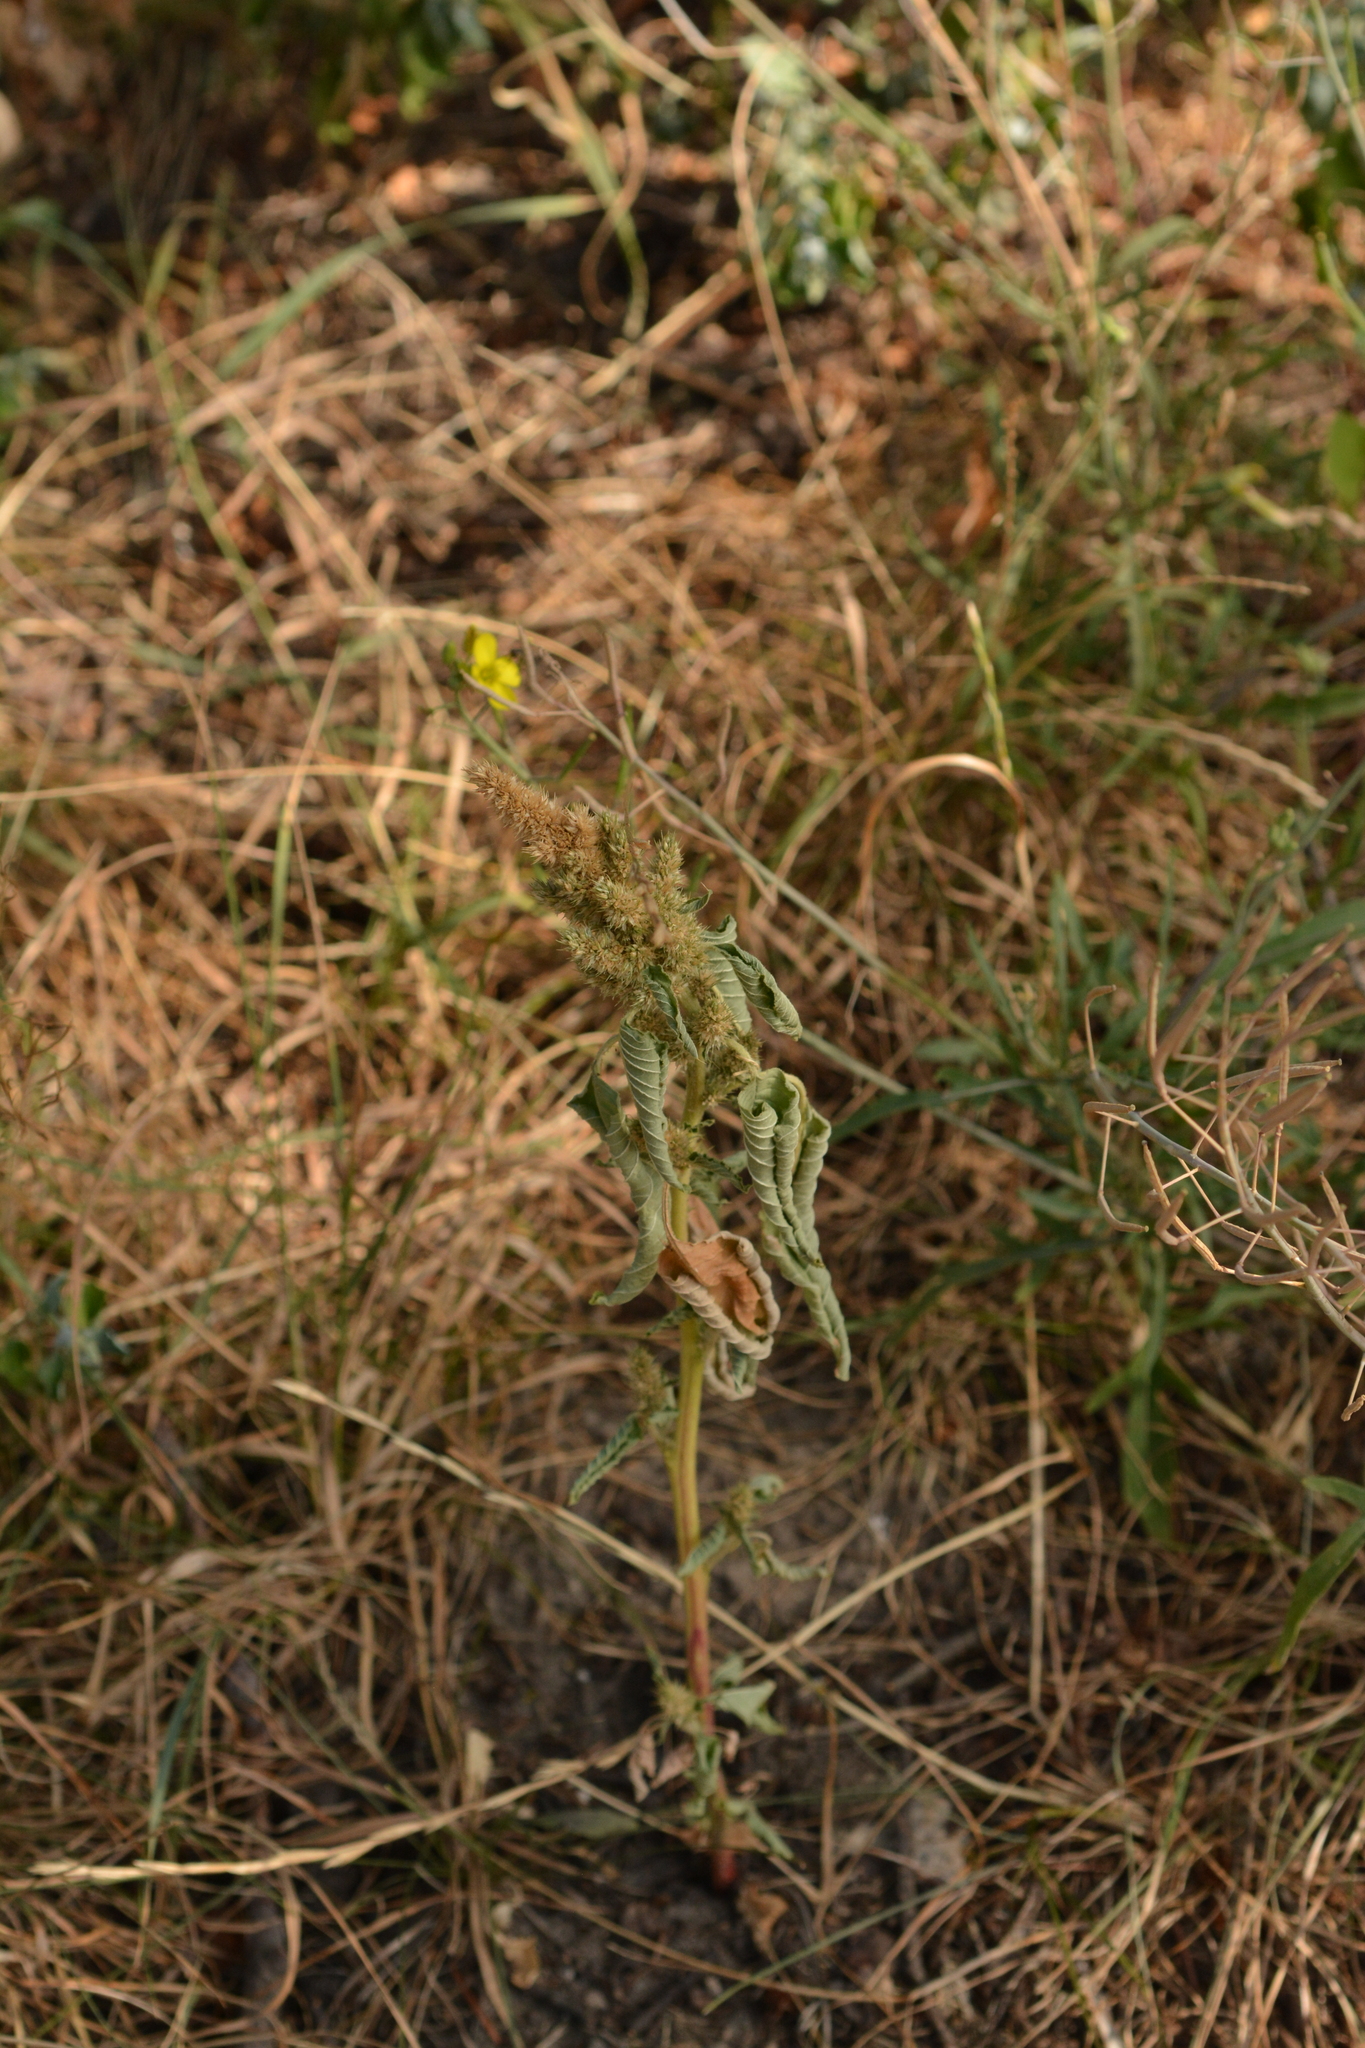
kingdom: Plantae
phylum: Tracheophyta
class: Magnoliopsida
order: Caryophyllales
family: Amaranthaceae
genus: Amaranthus
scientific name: Amaranthus retroflexus
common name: Redroot amaranth
